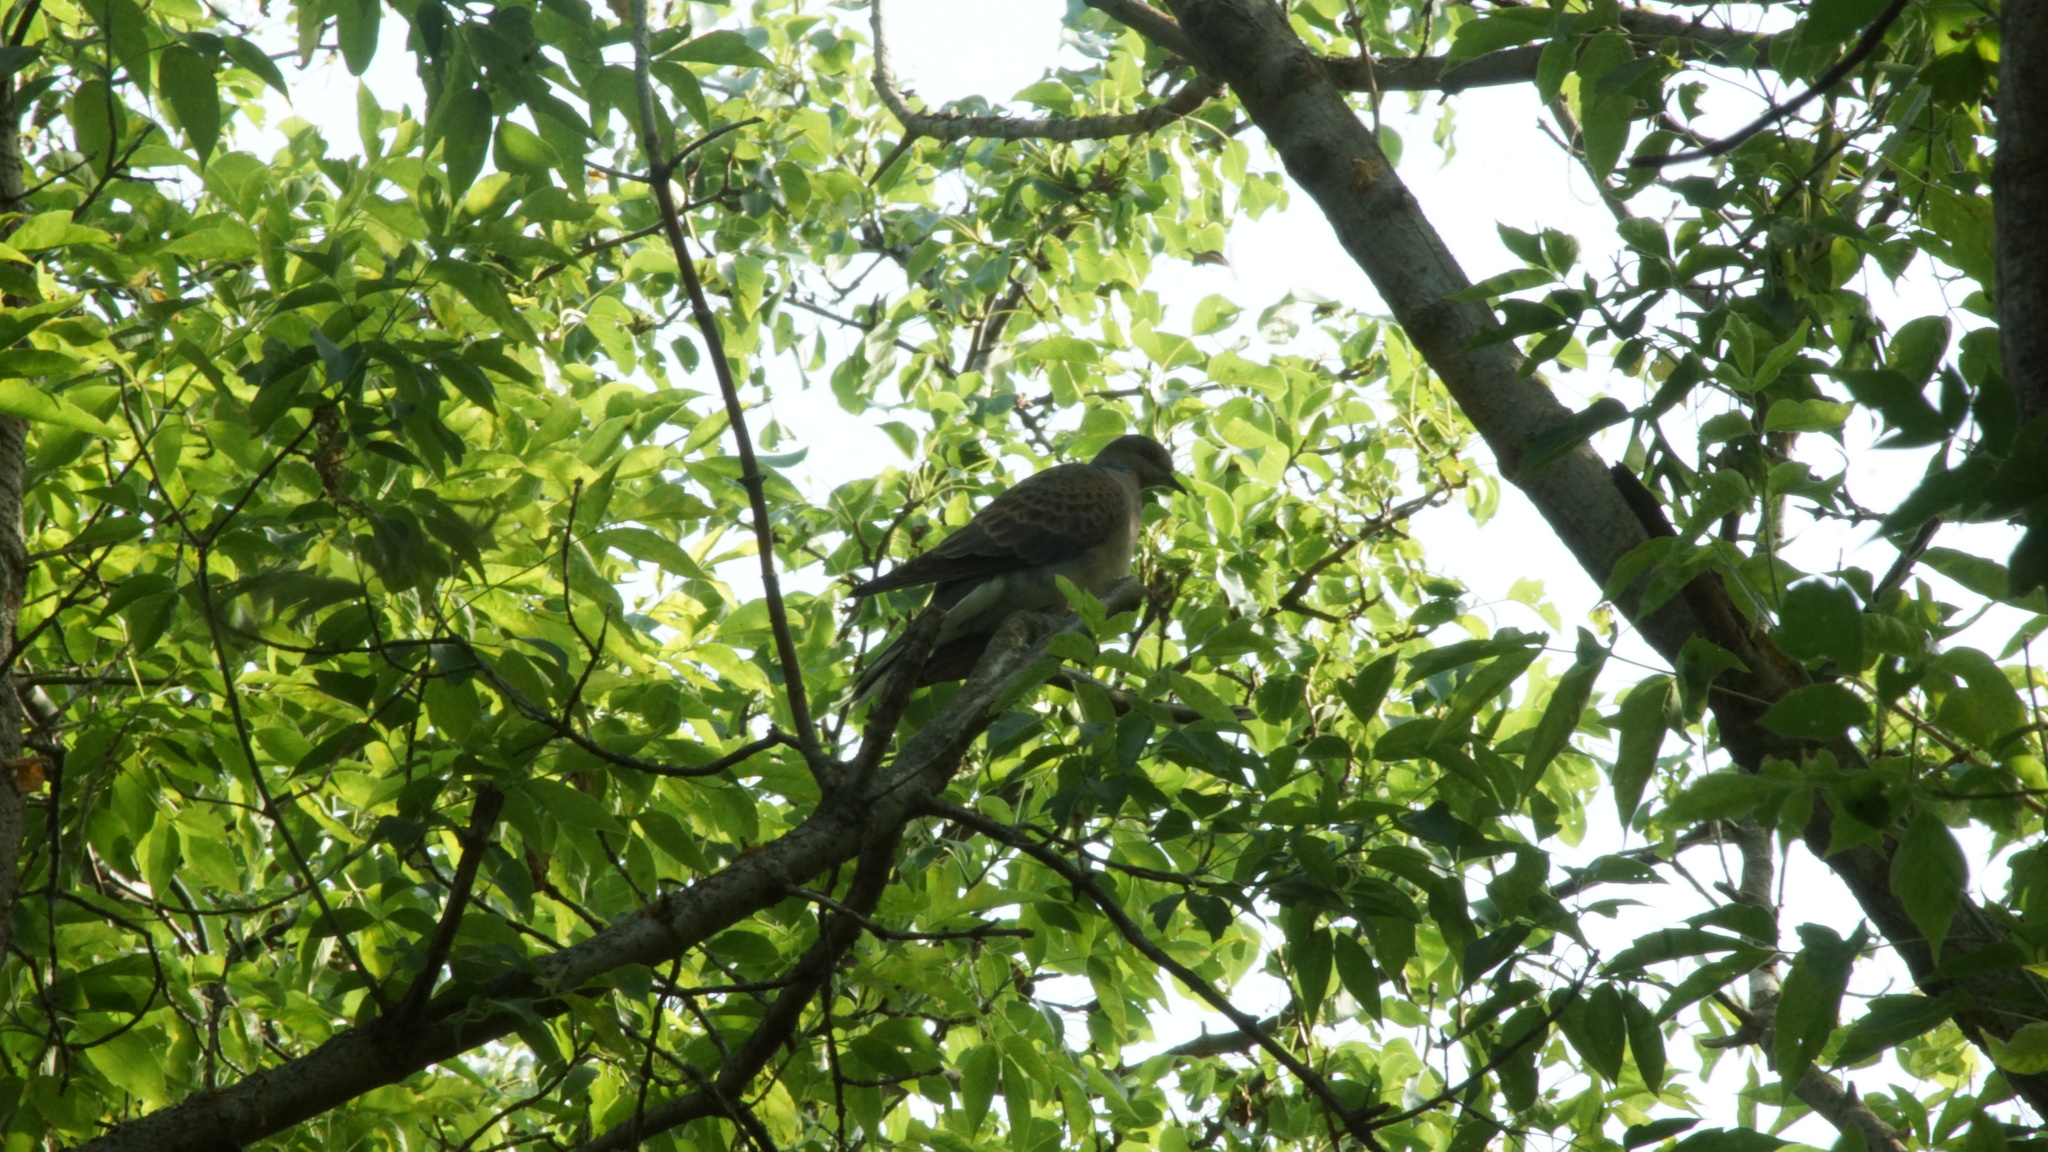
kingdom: Animalia
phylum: Chordata
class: Aves
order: Columbiformes
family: Columbidae
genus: Streptopelia
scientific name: Streptopelia turtur
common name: European turtle dove
